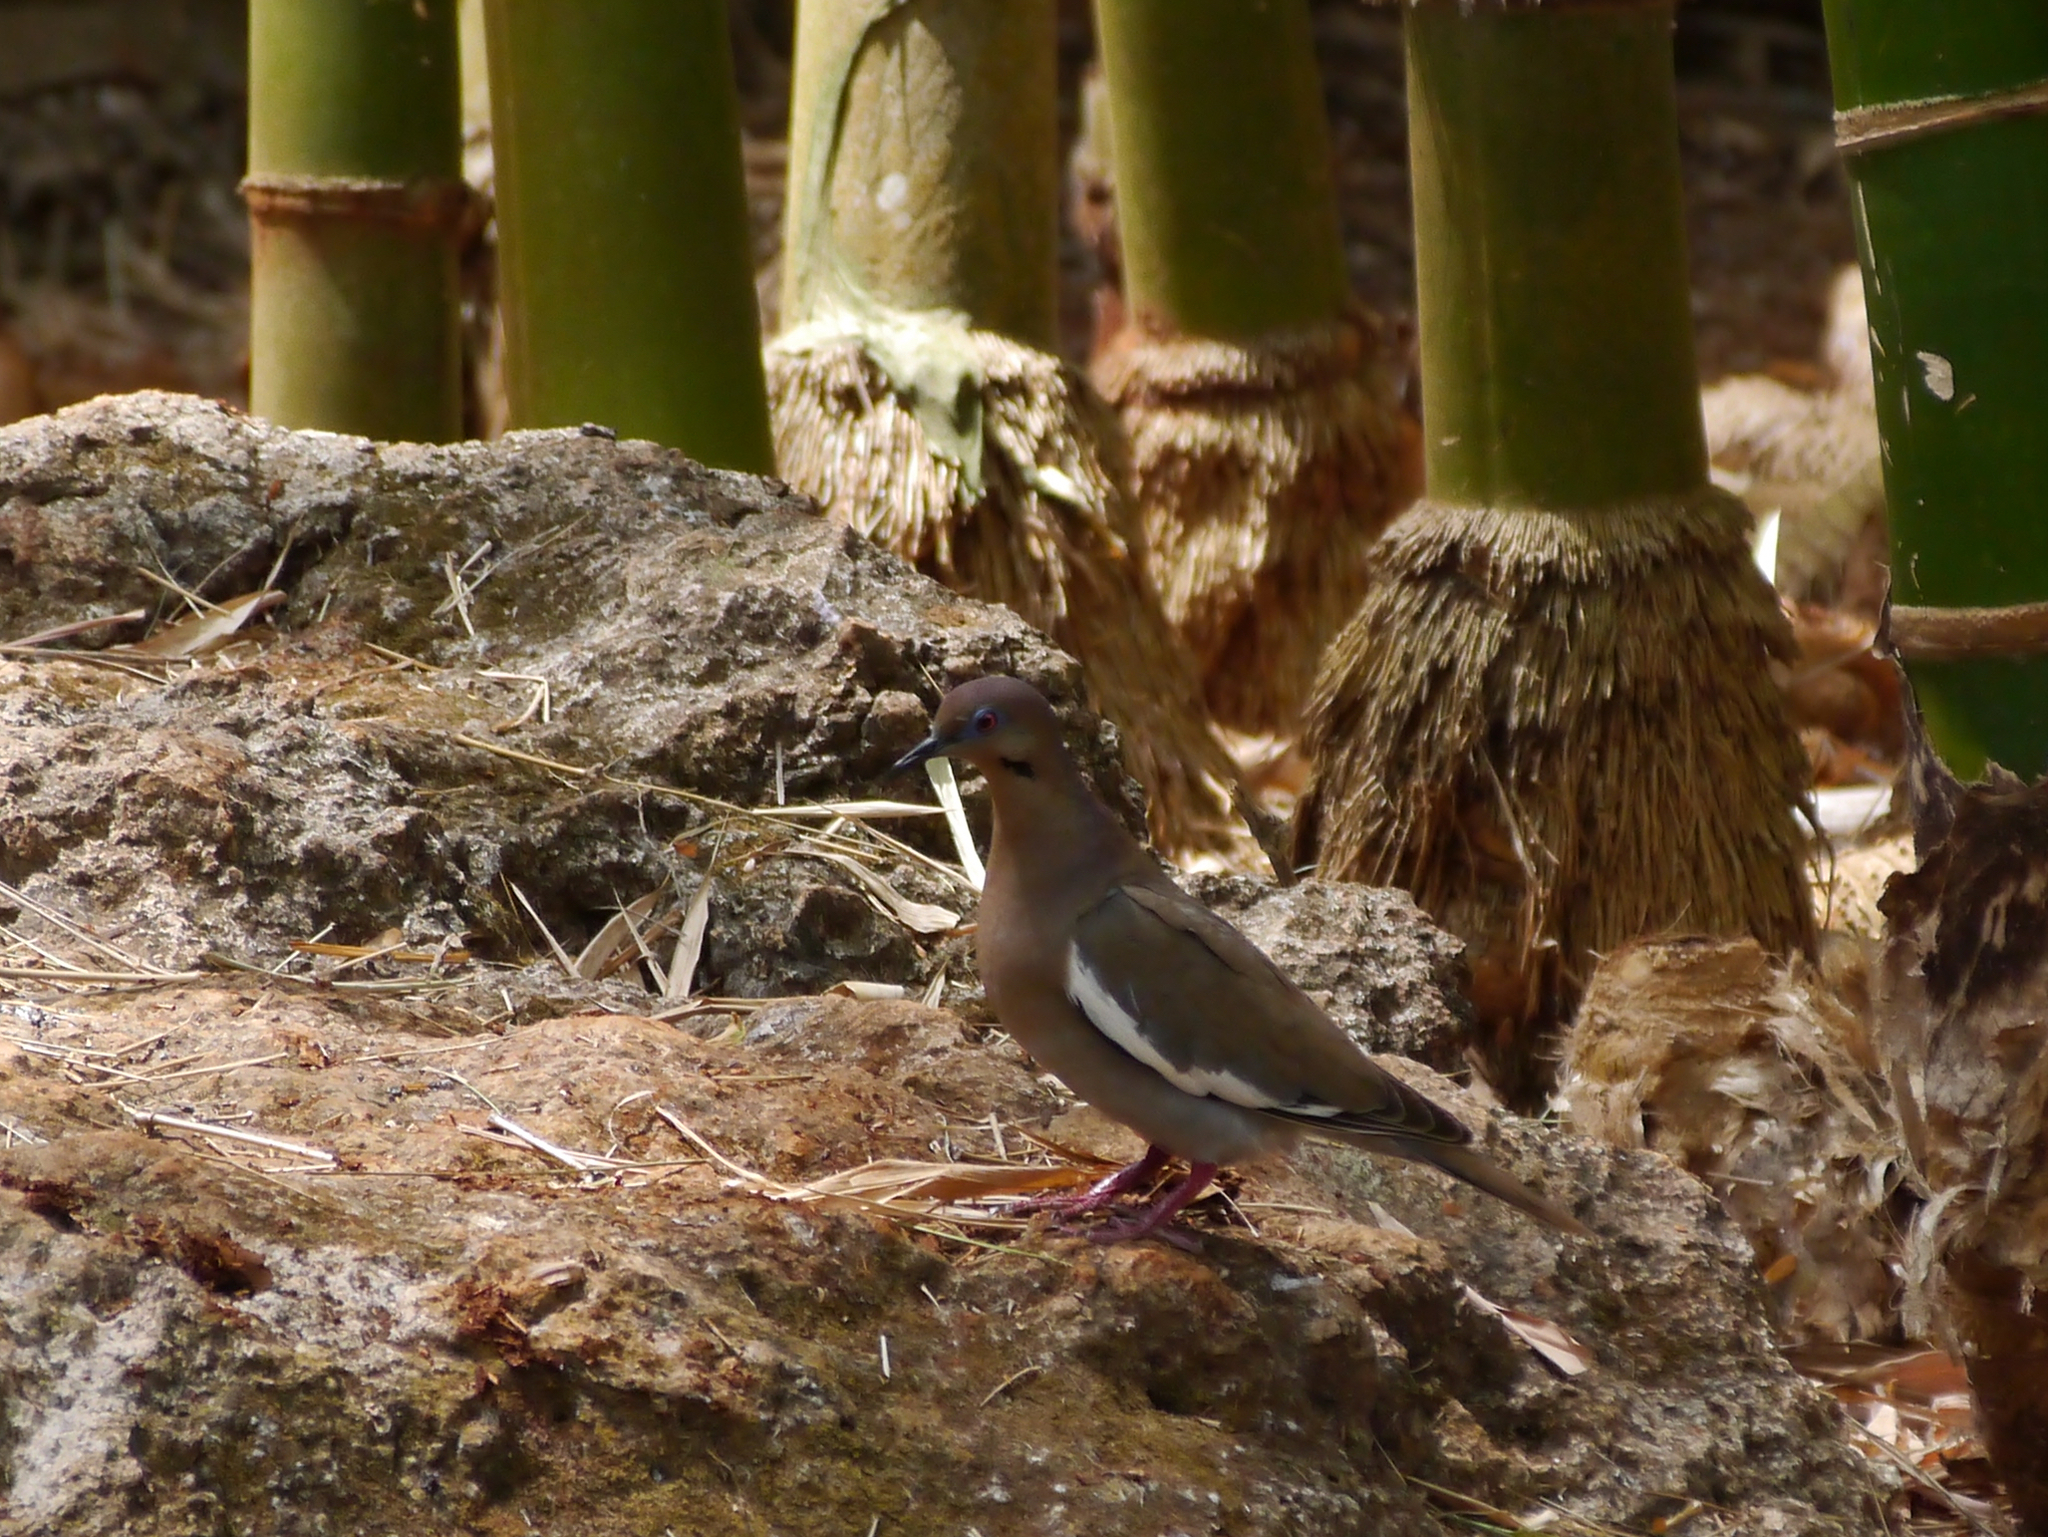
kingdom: Animalia
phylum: Chordata
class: Aves
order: Columbiformes
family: Columbidae
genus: Zenaida
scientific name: Zenaida asiatica
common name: White-winged dove
